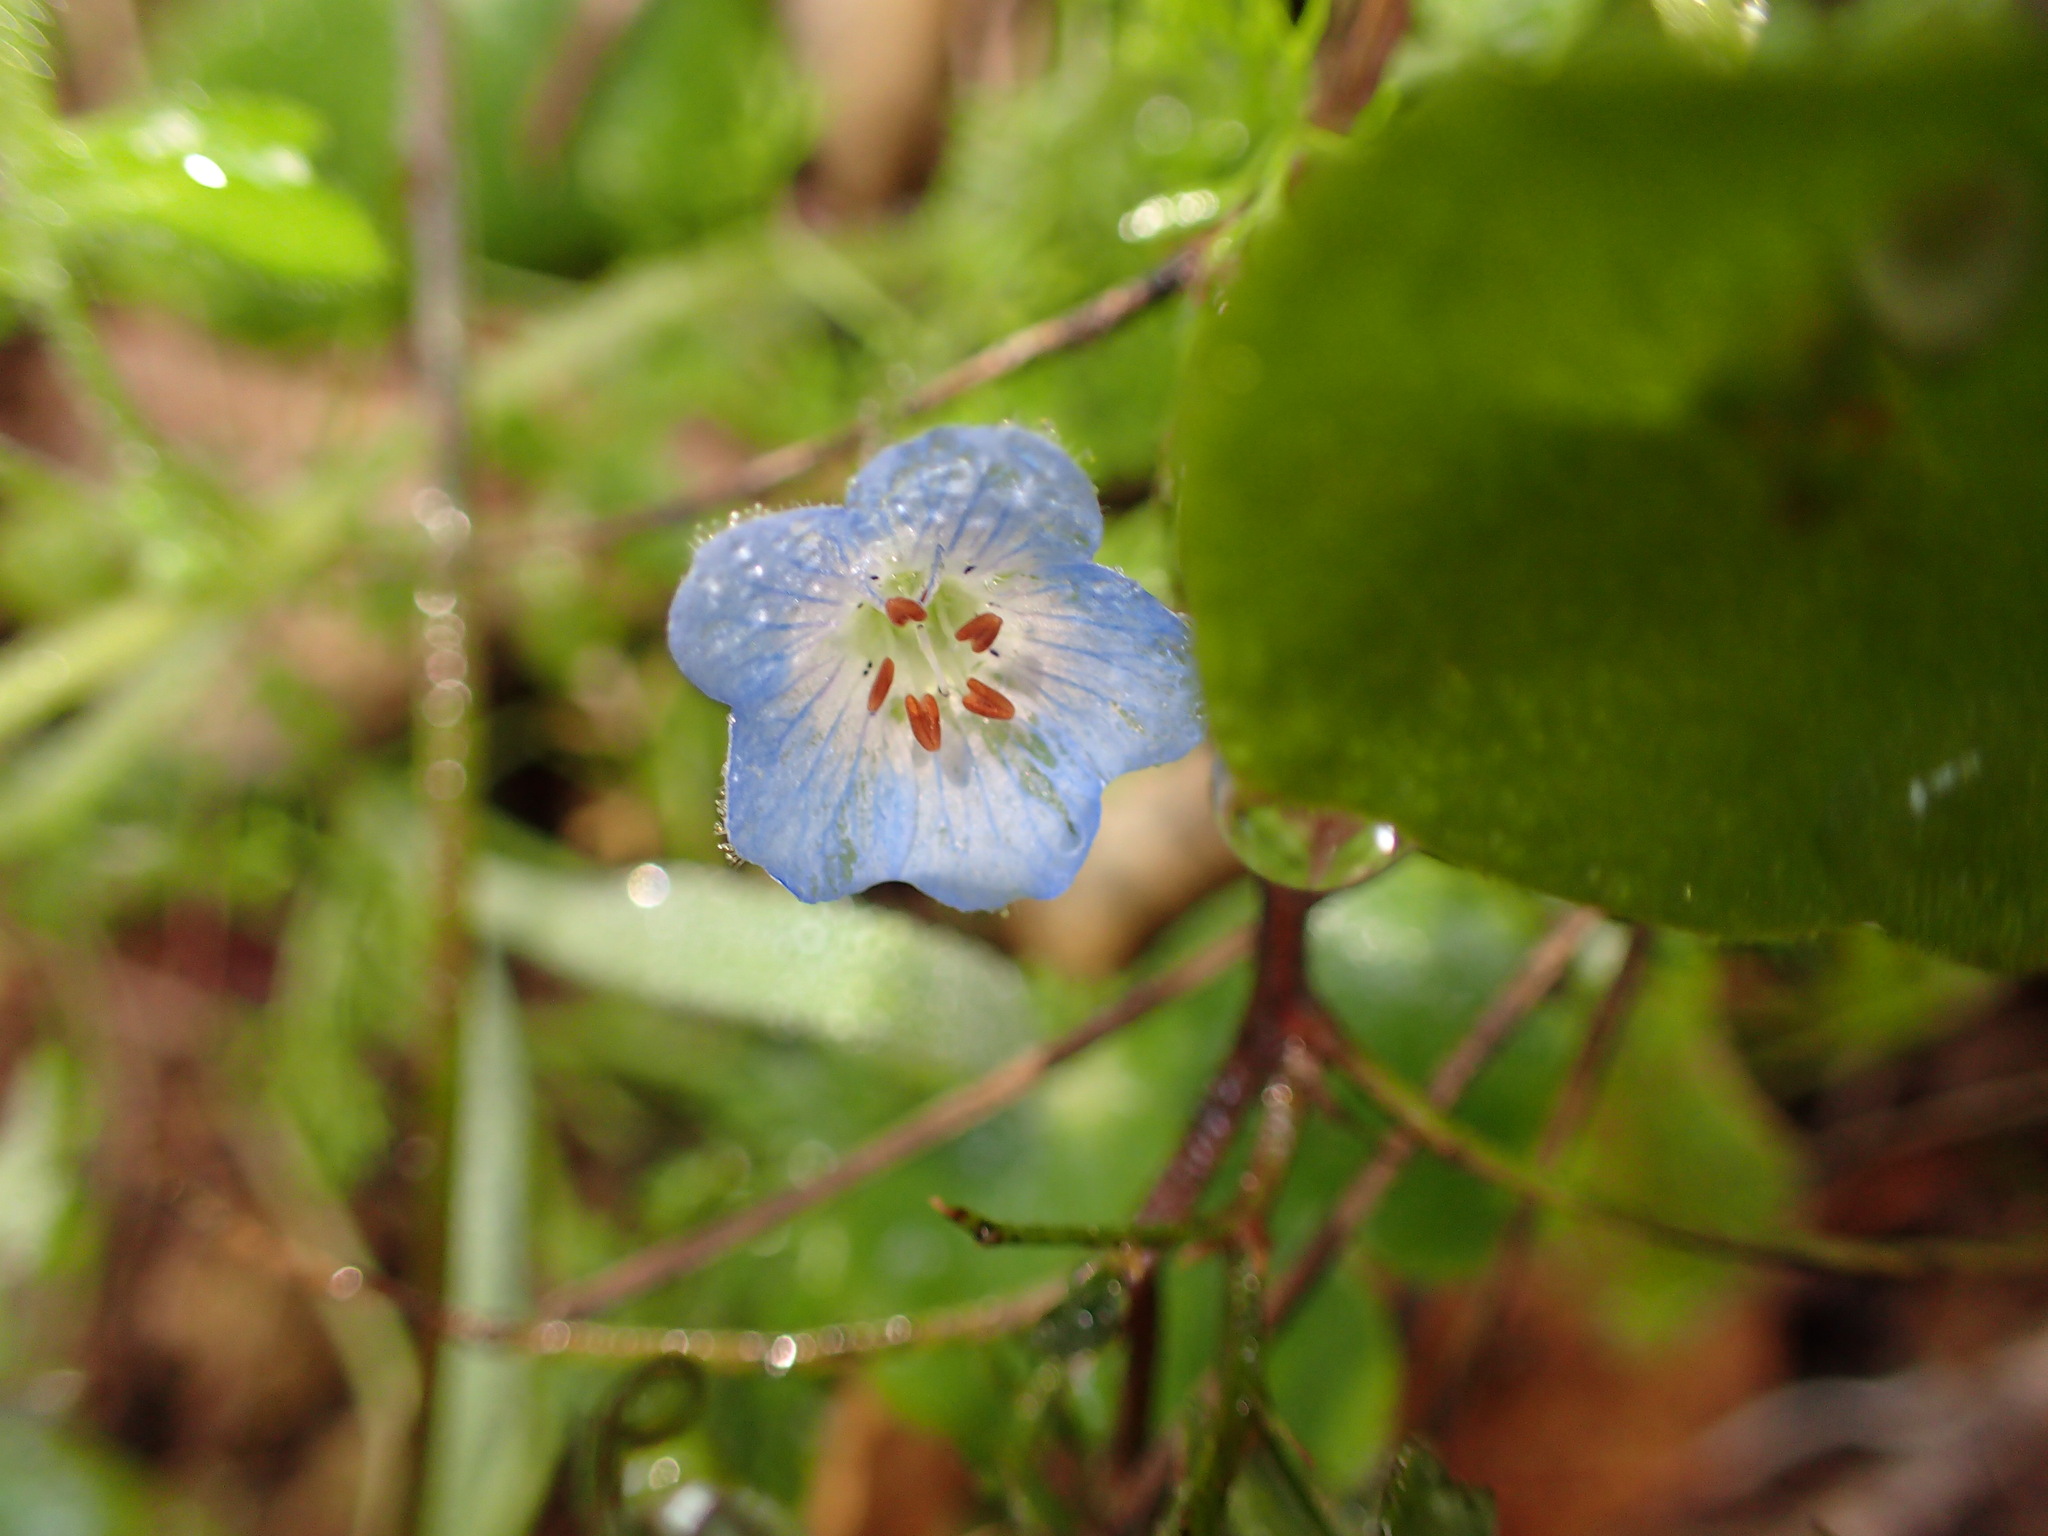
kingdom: Plantae
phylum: Tracheophyta
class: Magnoliopsida
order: Boraginales
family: Hydrophyllaceae
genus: Nemophila
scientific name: Nemophila menziesii
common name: Baby's-blue-eyes
